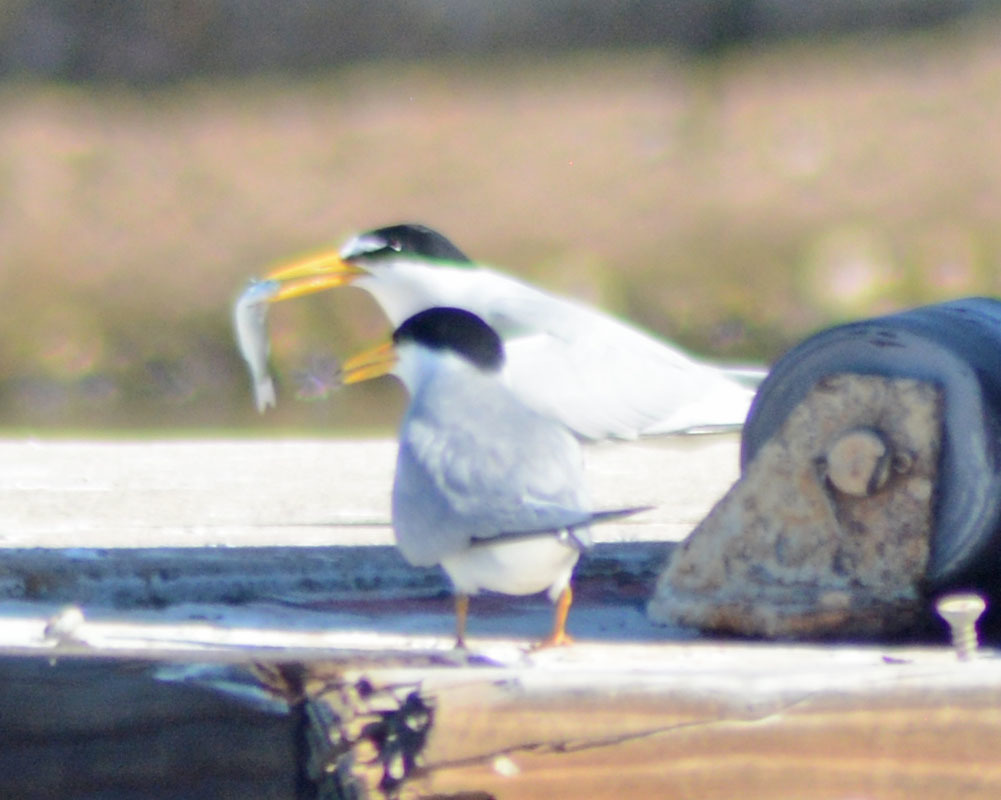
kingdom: Animalia
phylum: Chordata
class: Aves
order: Charadriiformes
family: Laridae
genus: Sternula
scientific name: Sternula antillarum
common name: Least tern
